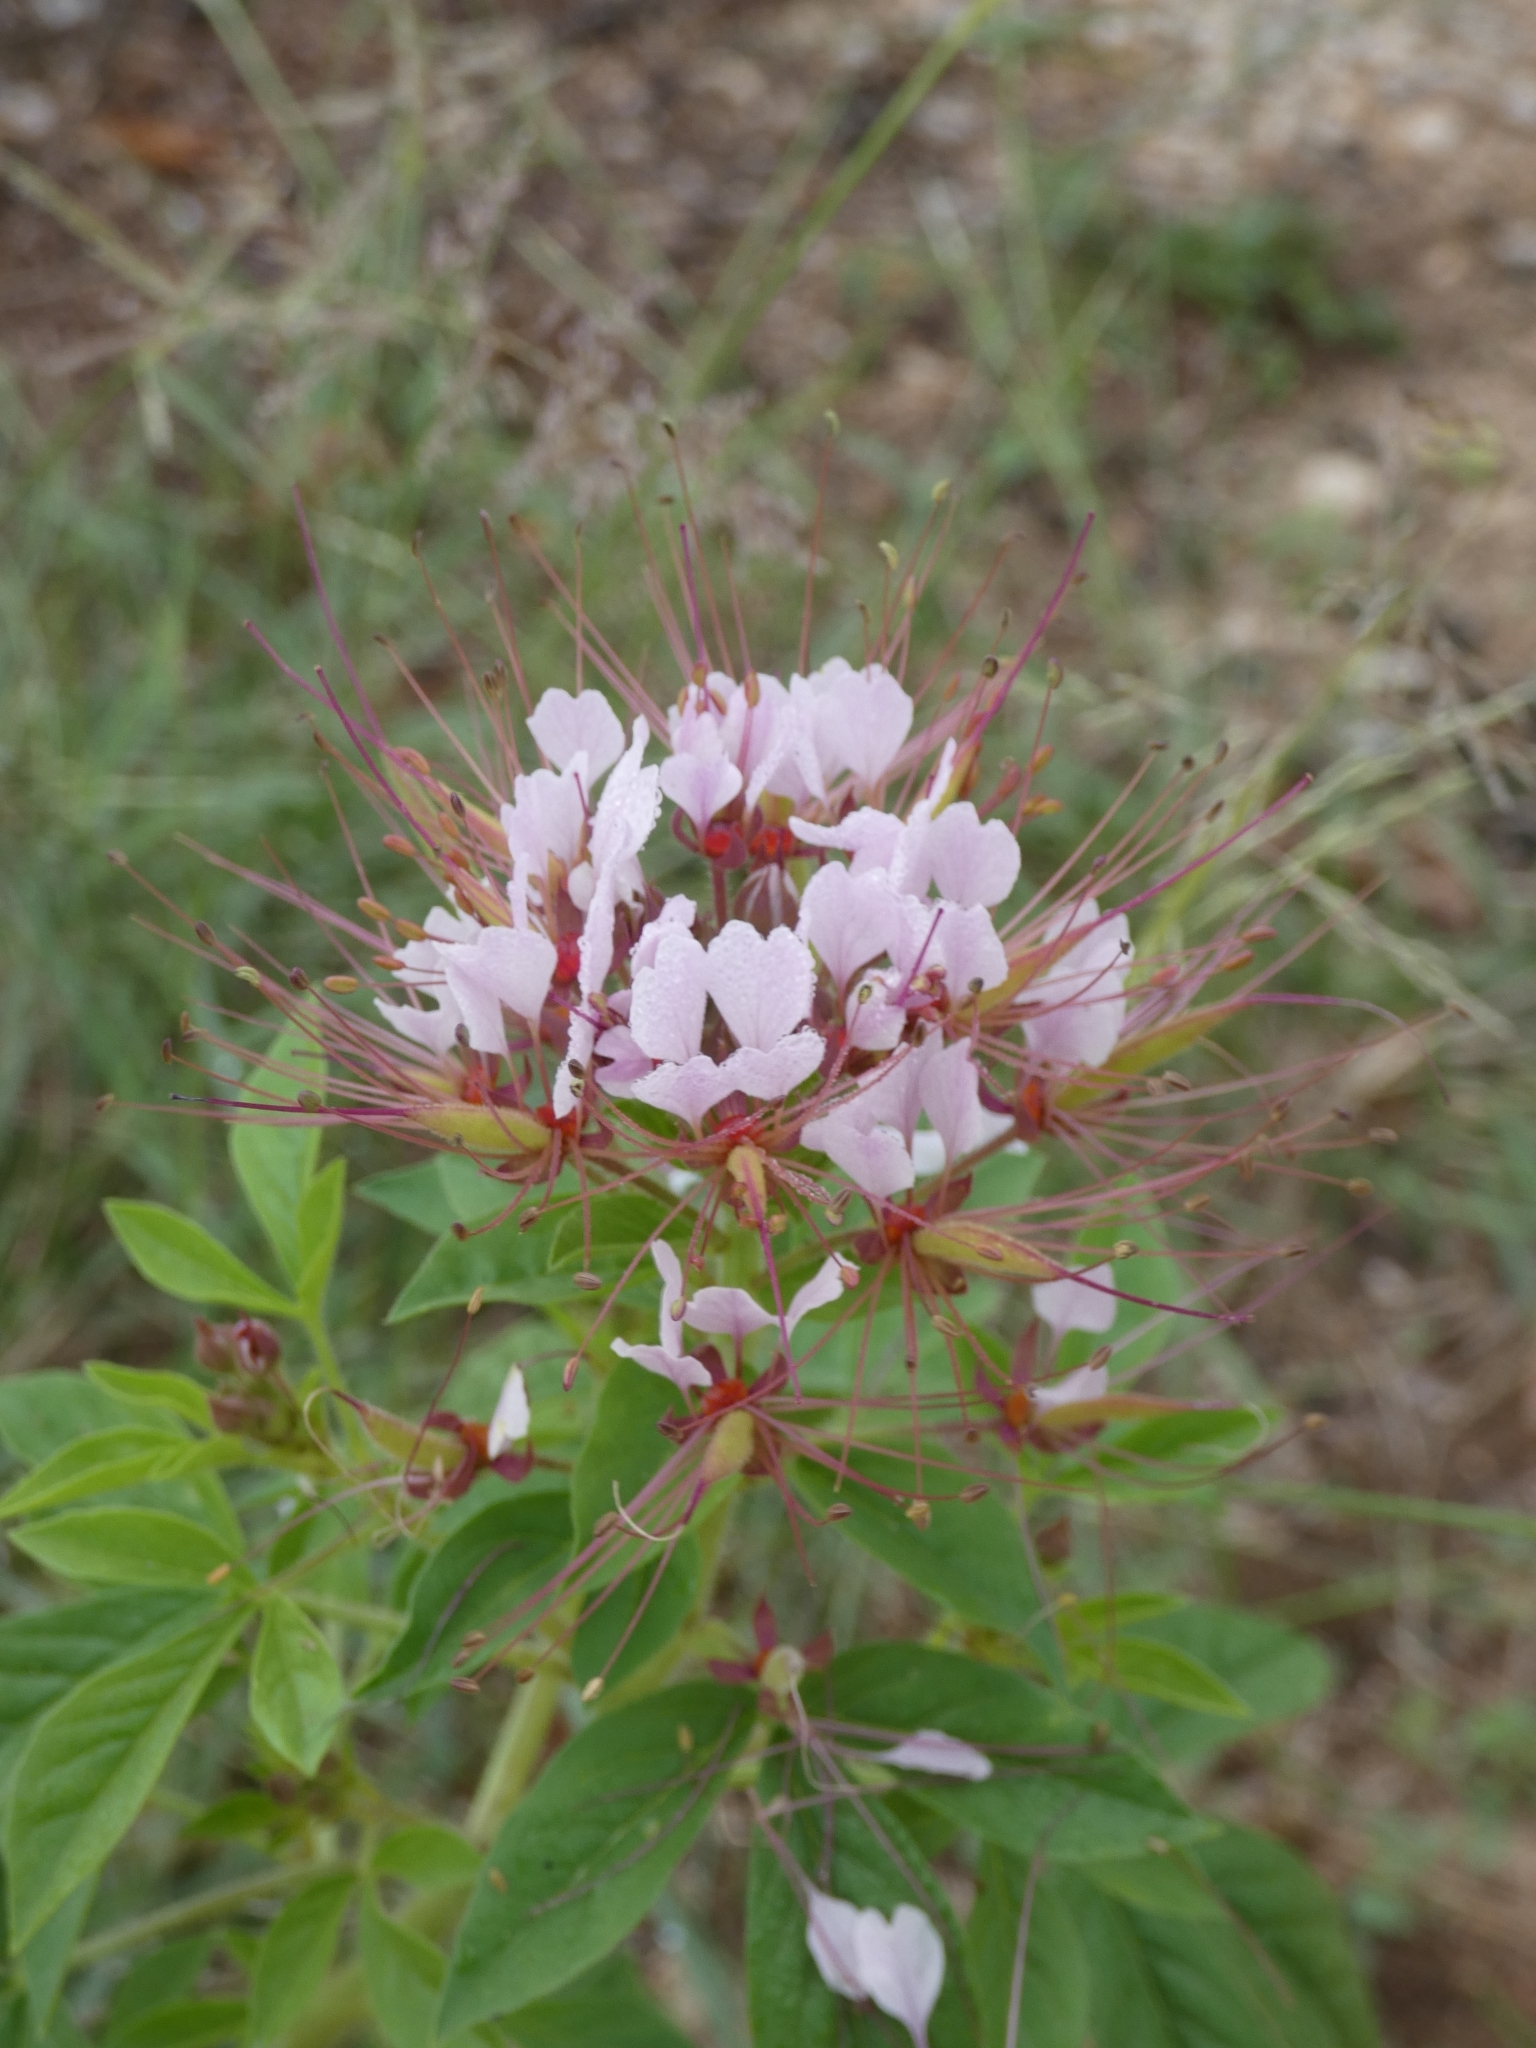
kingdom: Plantae
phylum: Tracheophyta
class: Magnoliopsida
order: Brassicales
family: Cleomaceae
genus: Polanisia
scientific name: Polanisia dodecandra
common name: Clammyweed
